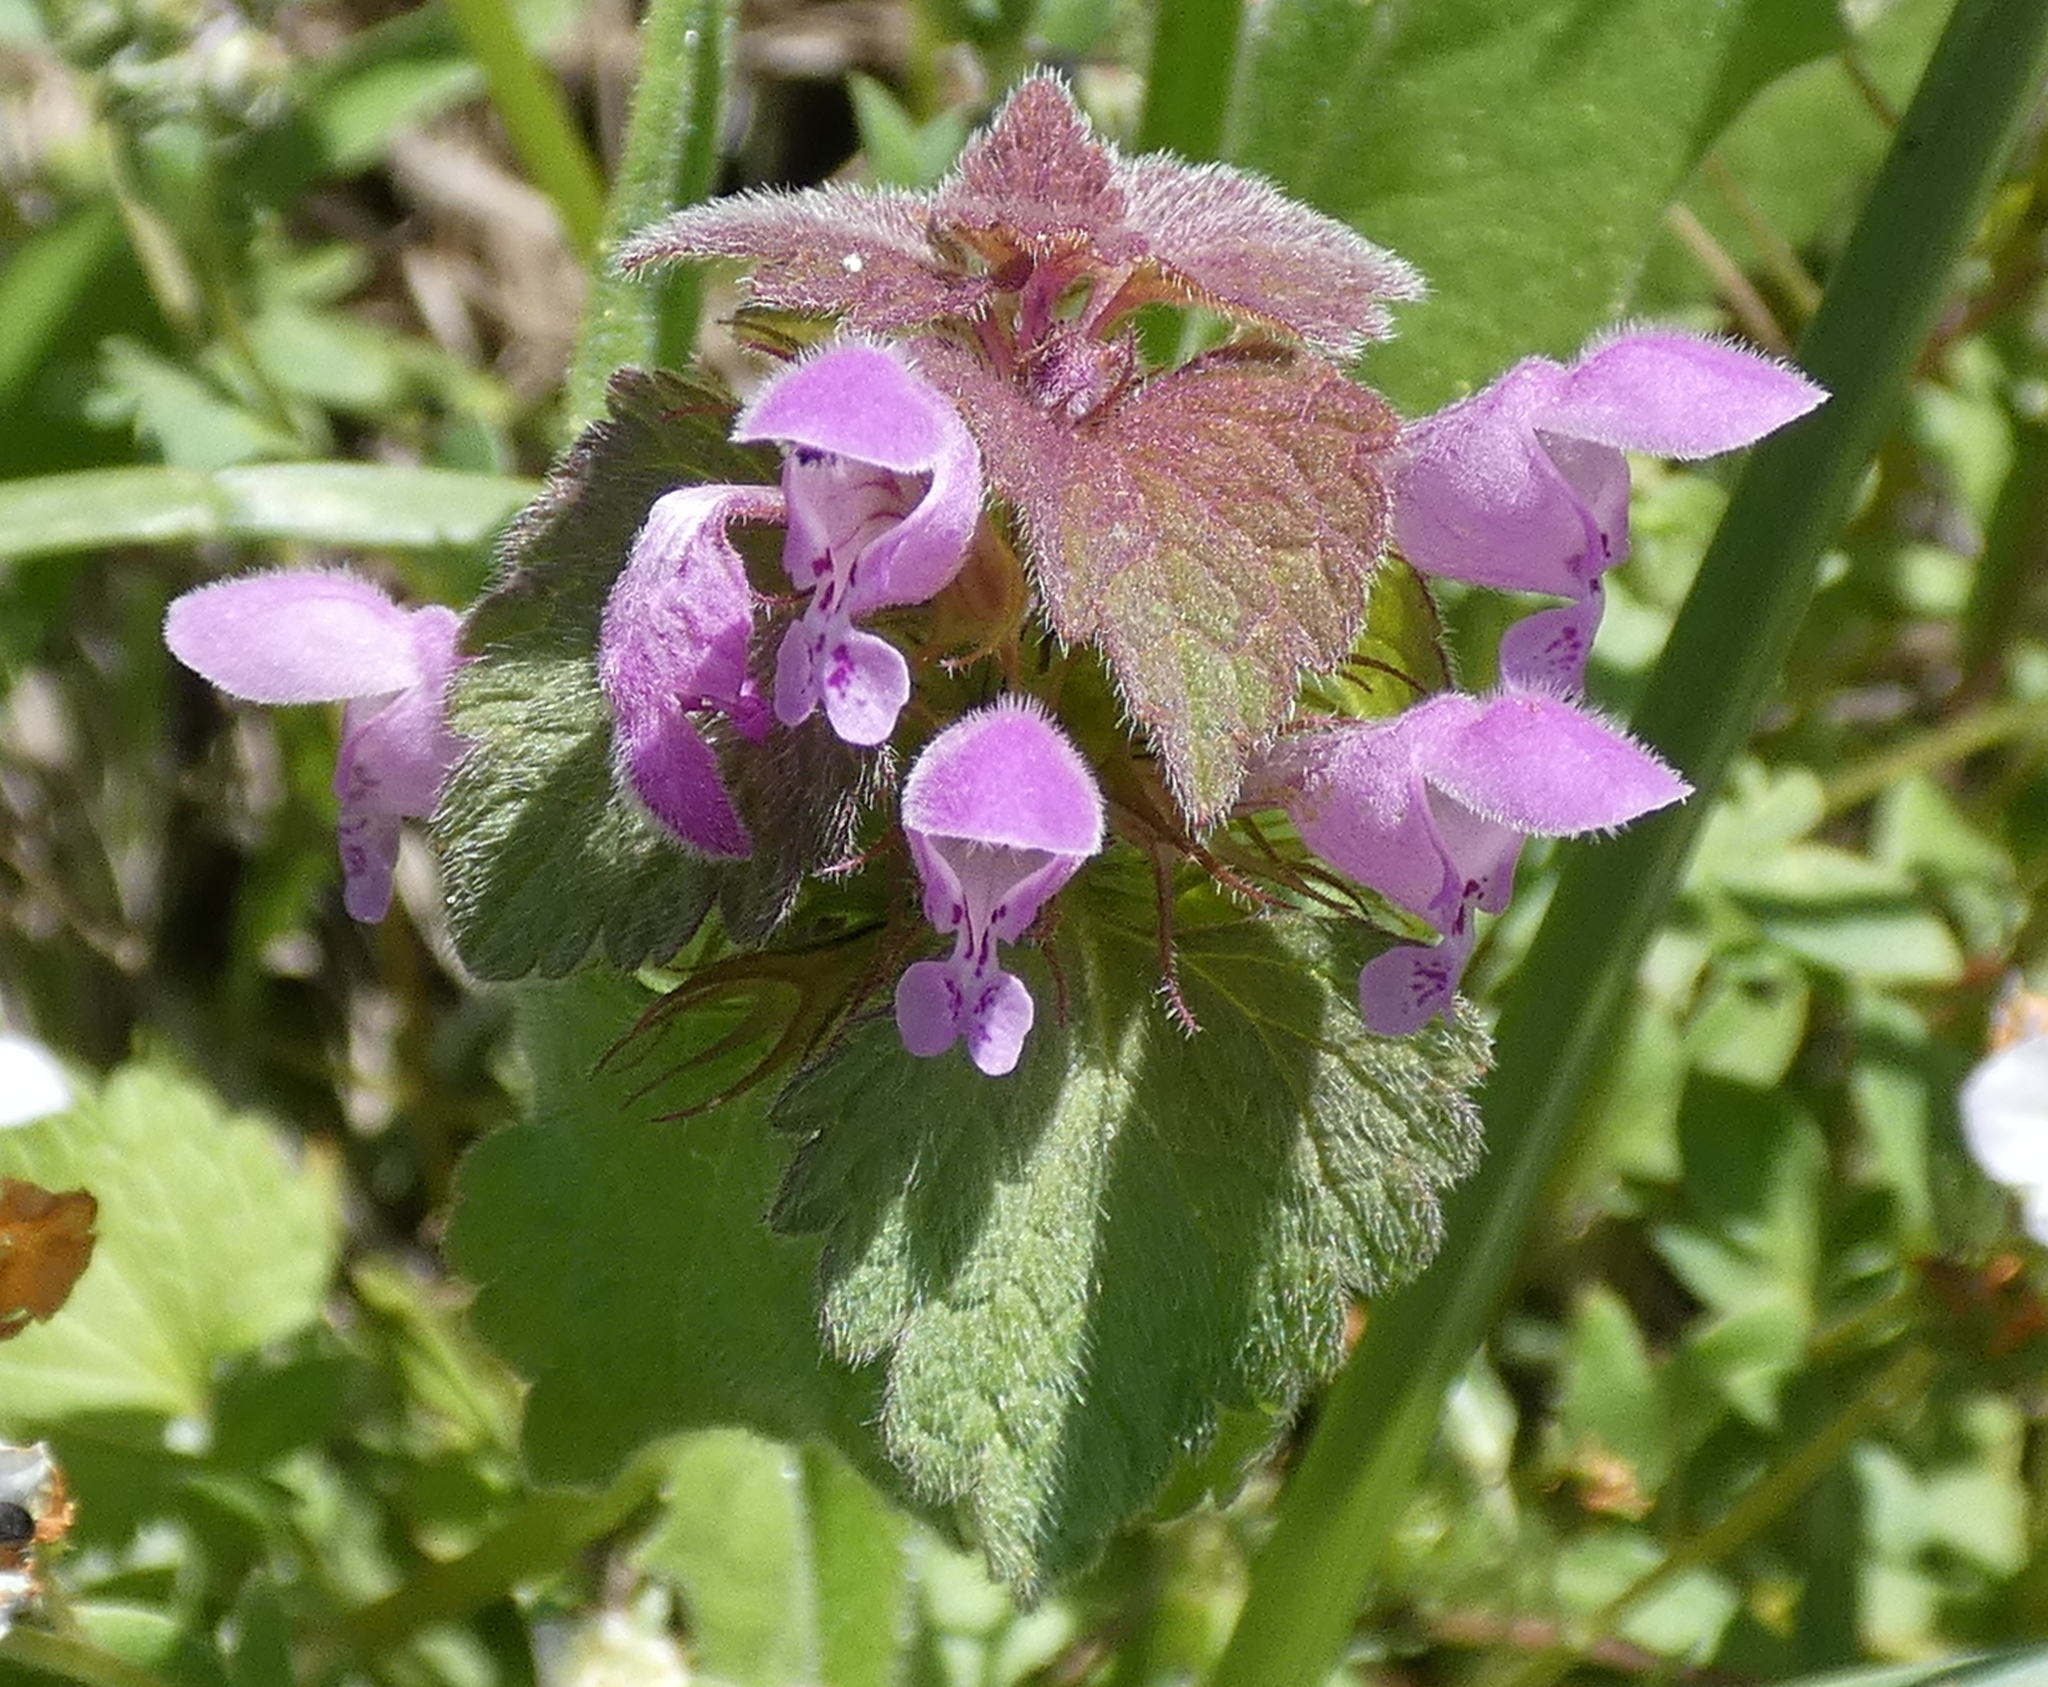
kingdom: Plantae
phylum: Tracheophyta
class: Magnoliopsida
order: Lamiales
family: Lamiaceae
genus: Lamium
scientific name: Lamium purpureum
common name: Red dead-nettle
